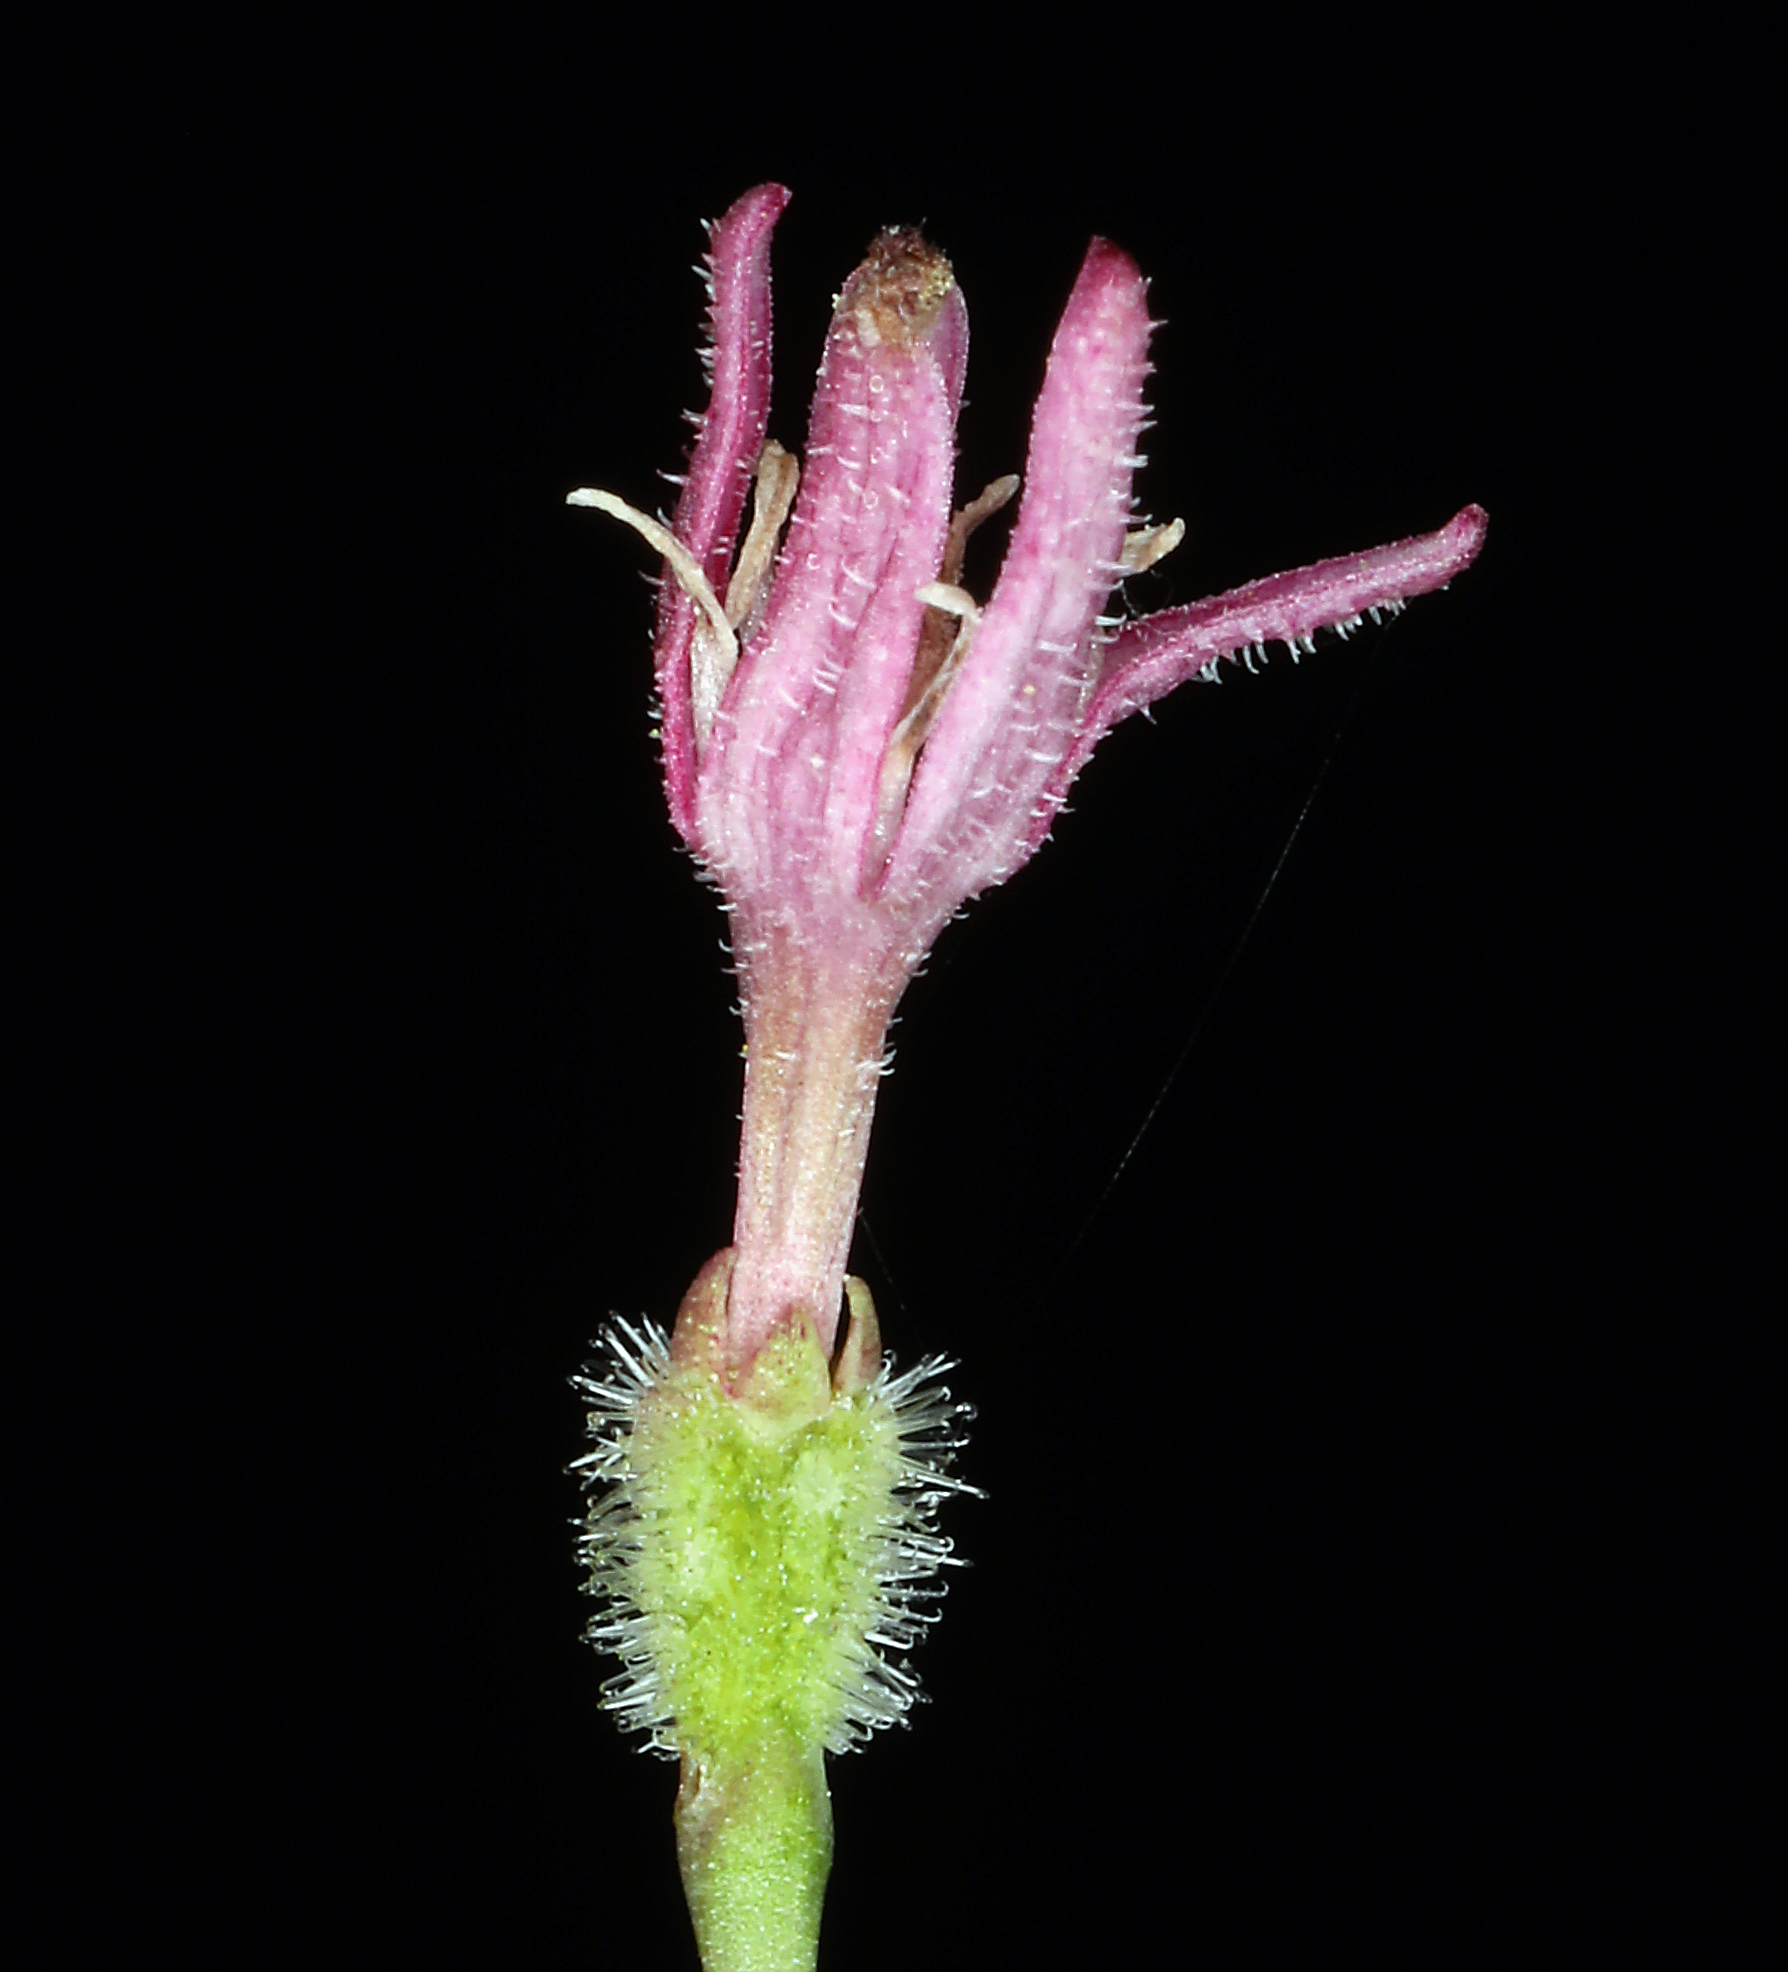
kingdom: Plantae
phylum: Tracheophyta
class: Magnoliopsida
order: Gentianales
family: Rubiaceae
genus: Kelloggia
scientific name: Kelloggia galioides
